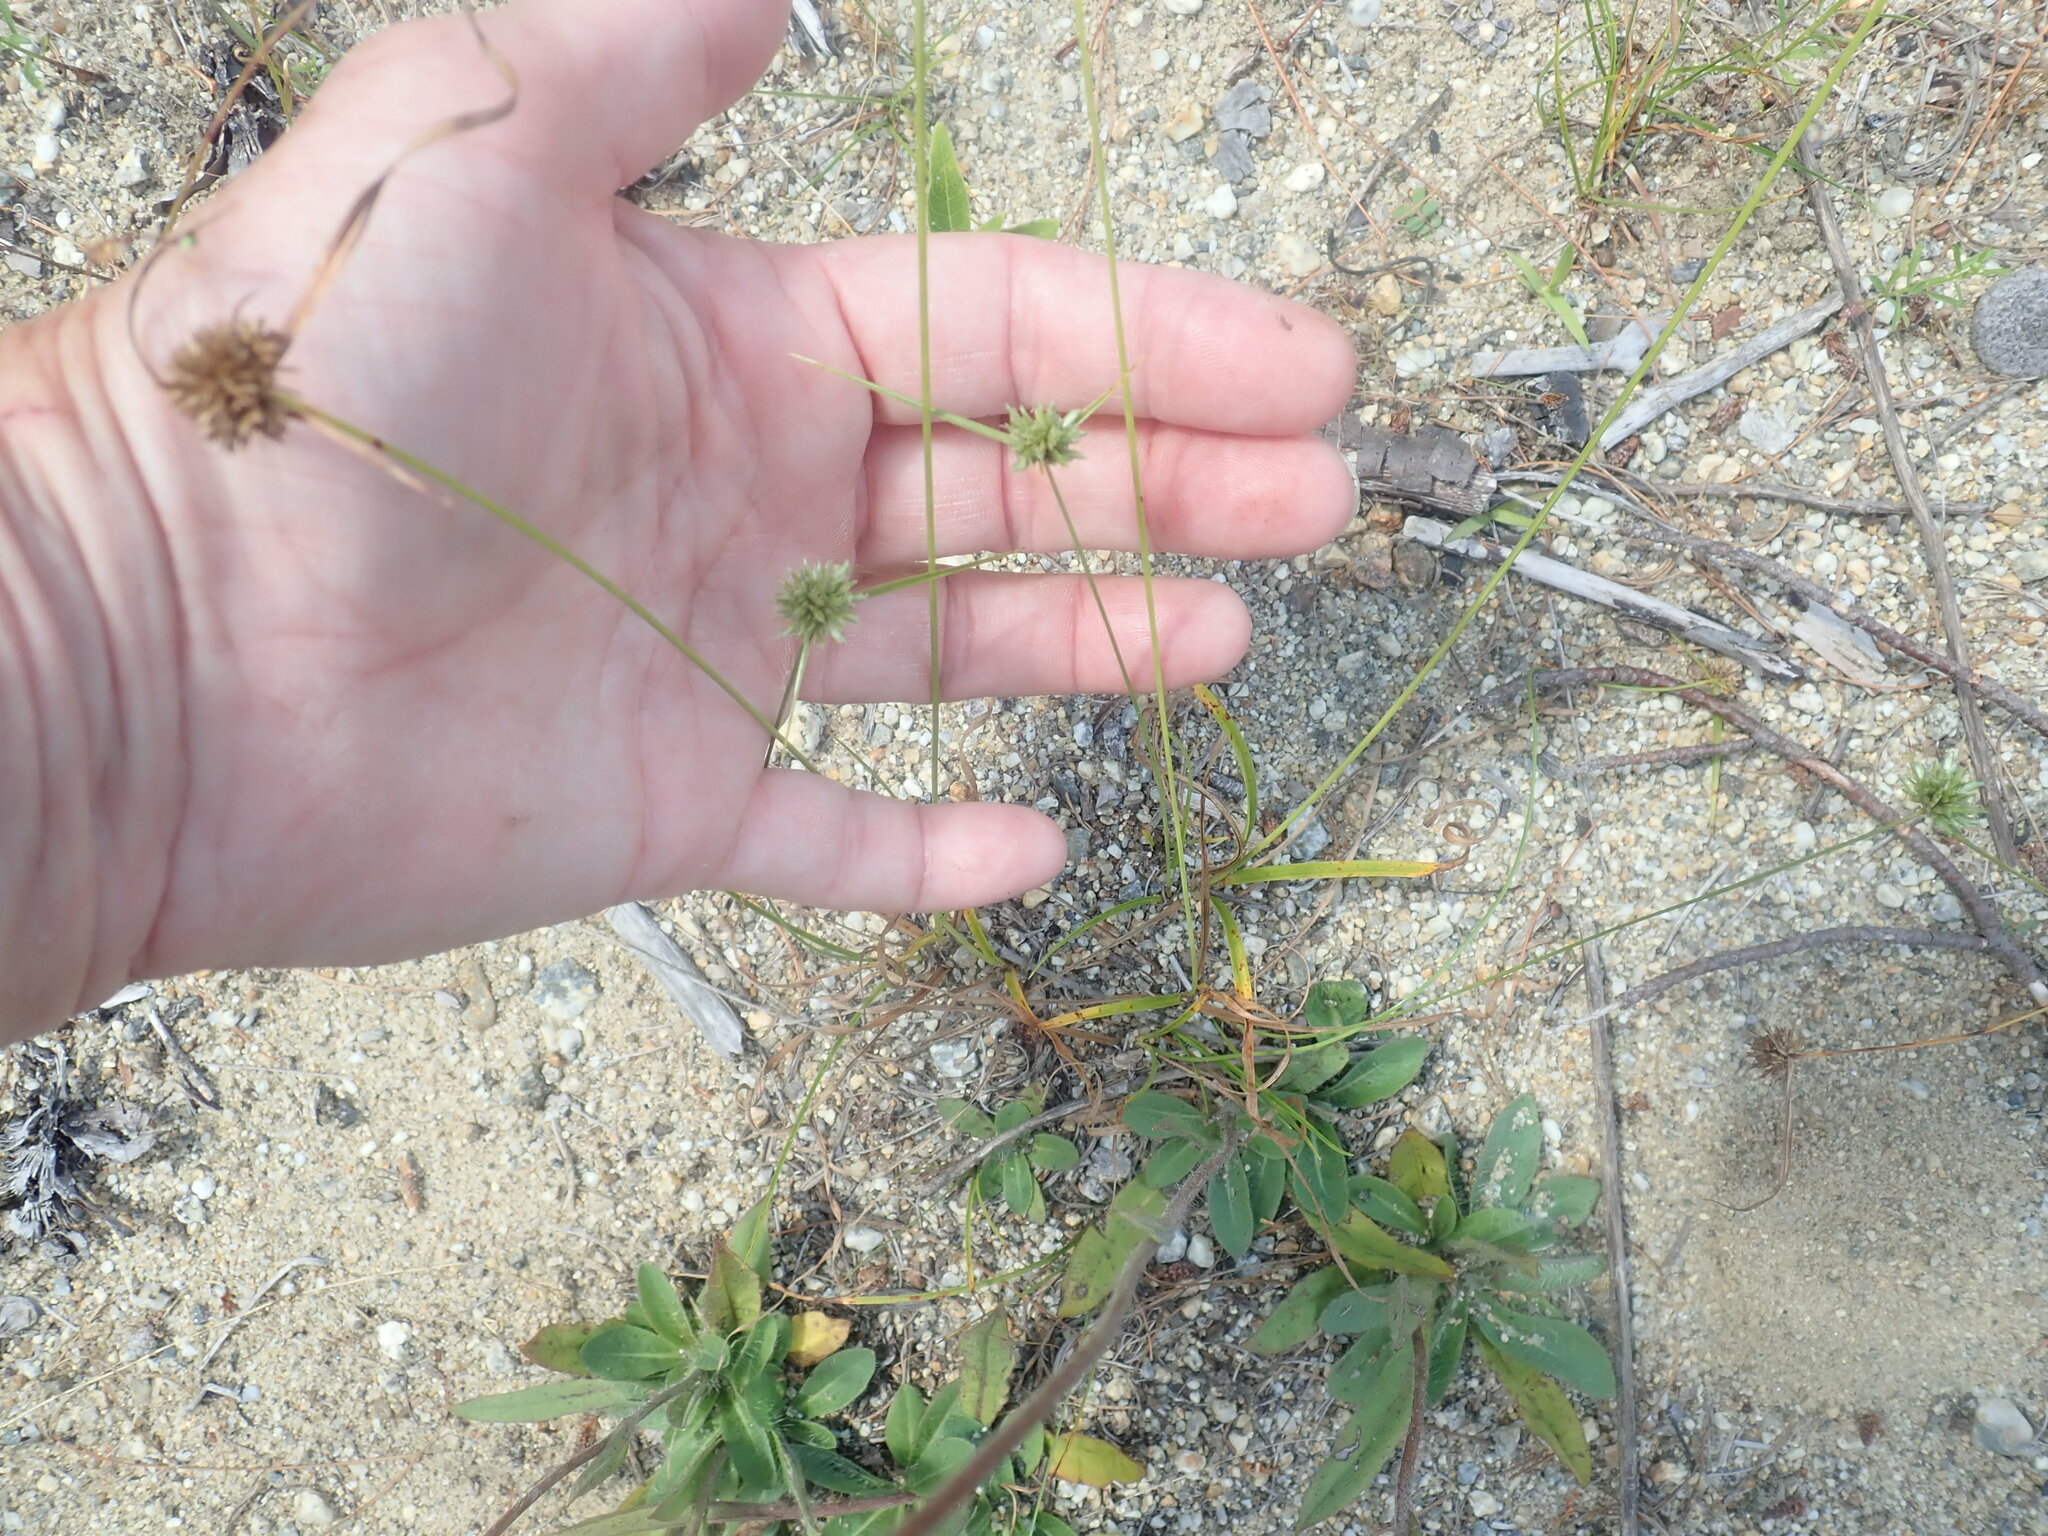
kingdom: Plantae
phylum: Tracheophyta
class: Liliopsida
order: Poales
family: Cyperaceae
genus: Cyperus
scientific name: Cyperus lupulinus
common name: Great plains flatsedge
